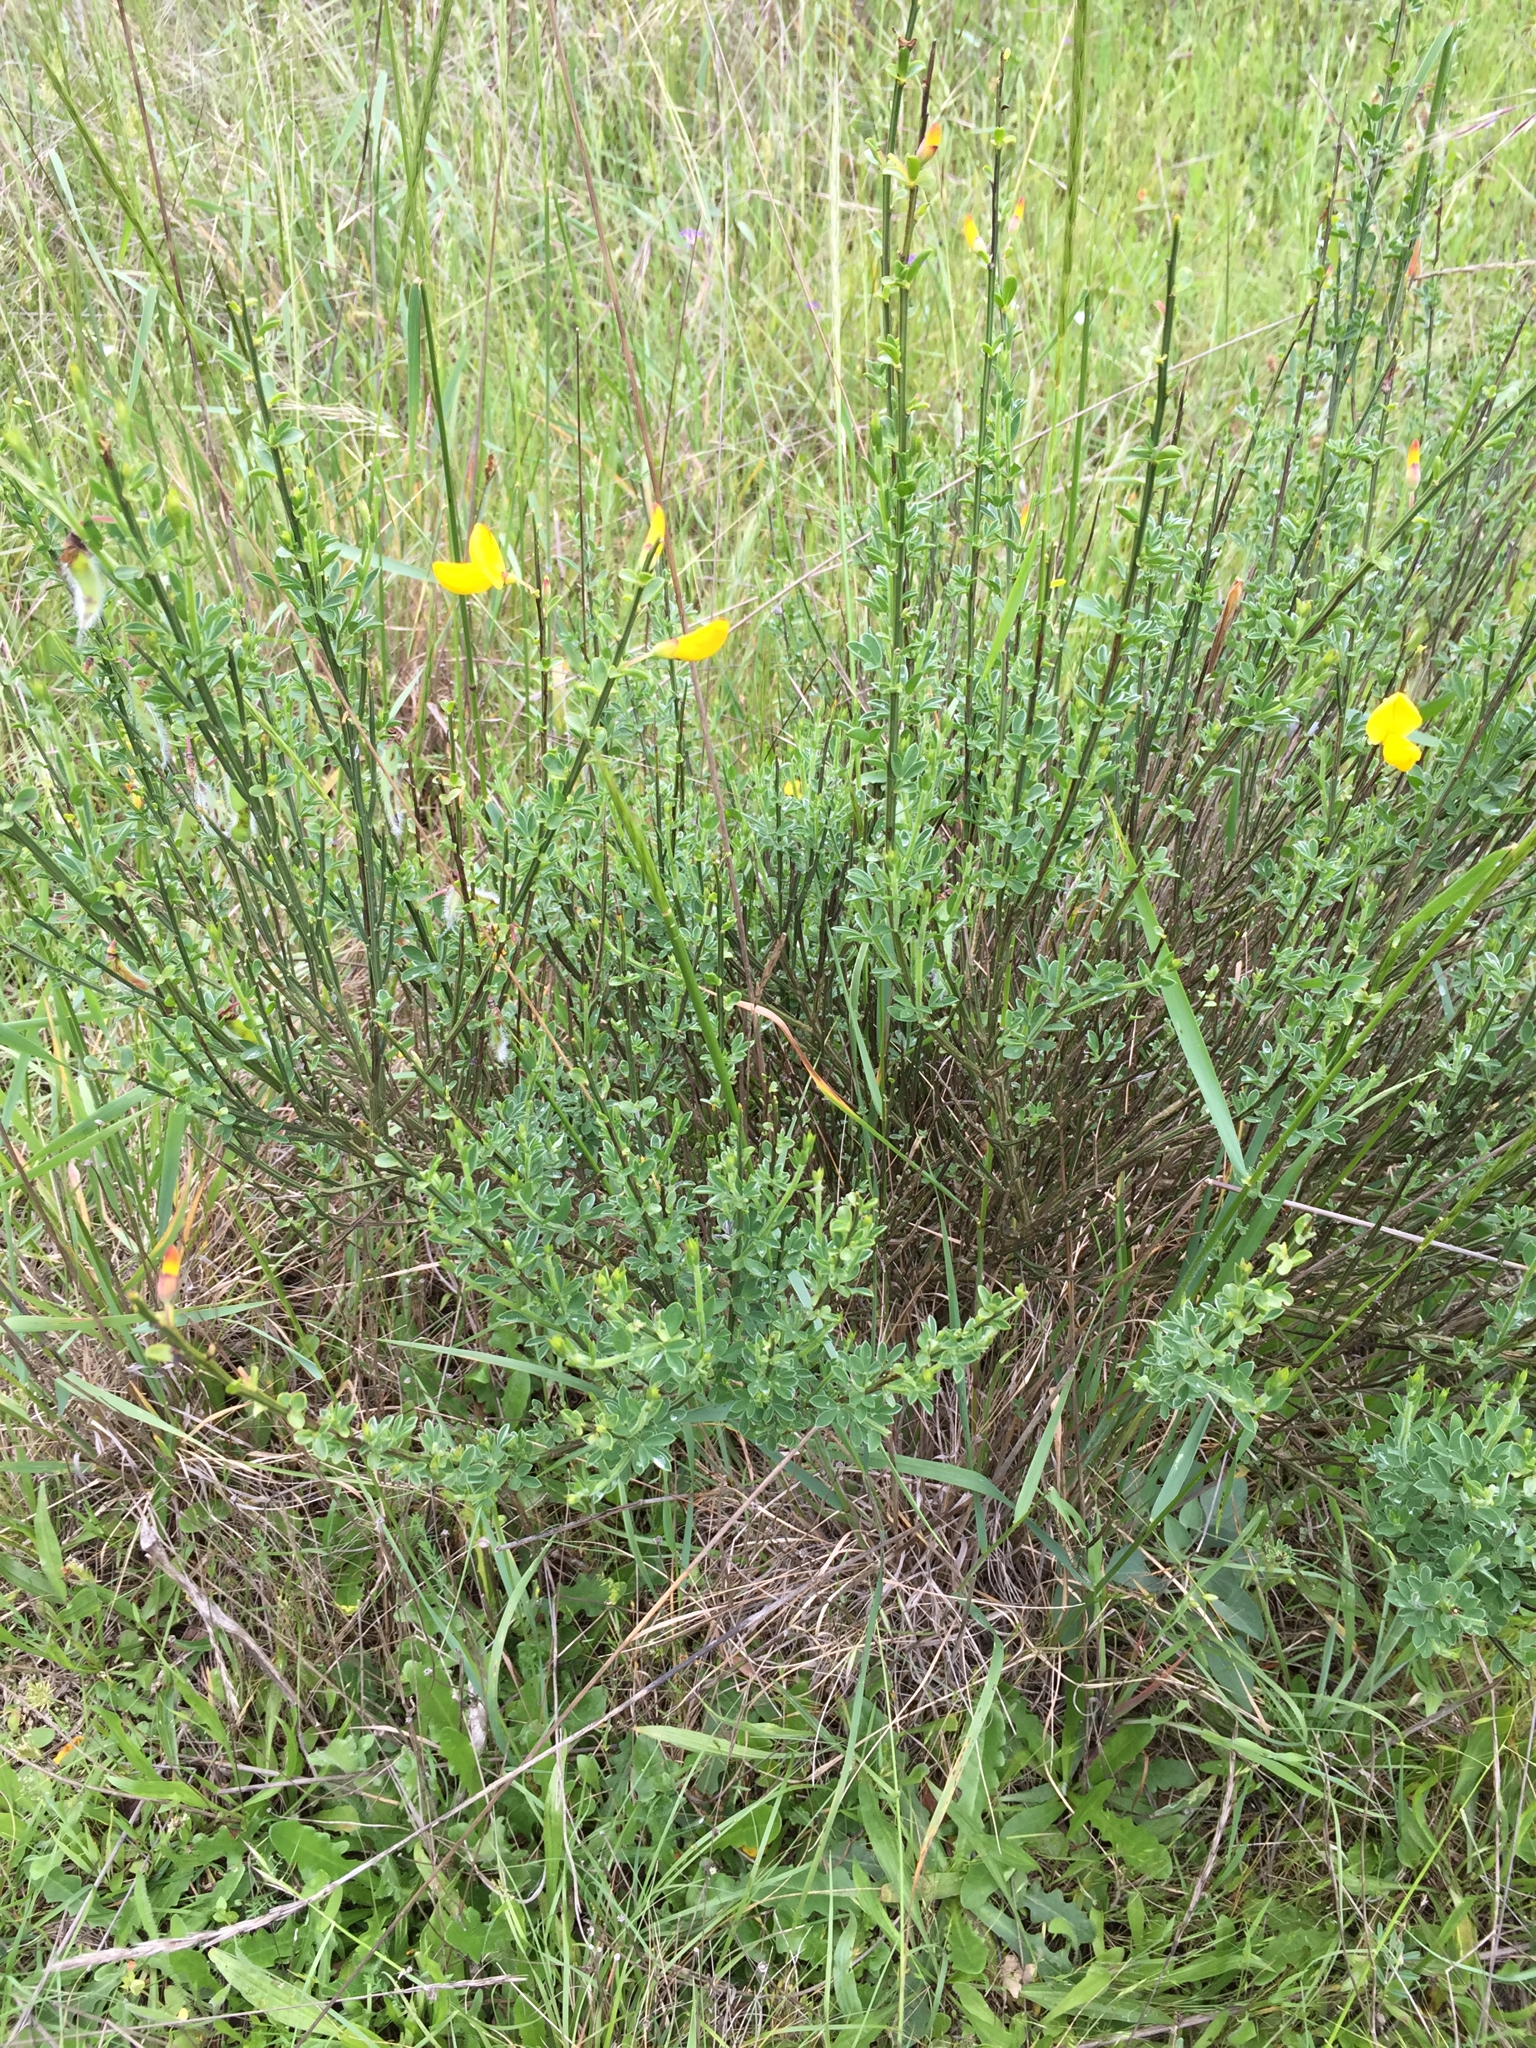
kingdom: Plantae
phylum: Tracheophyta
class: Magnoliopsida
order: Fabales
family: Fabaceae
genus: Cytisus
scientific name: Cytisus scoparius
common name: Scotch broom
